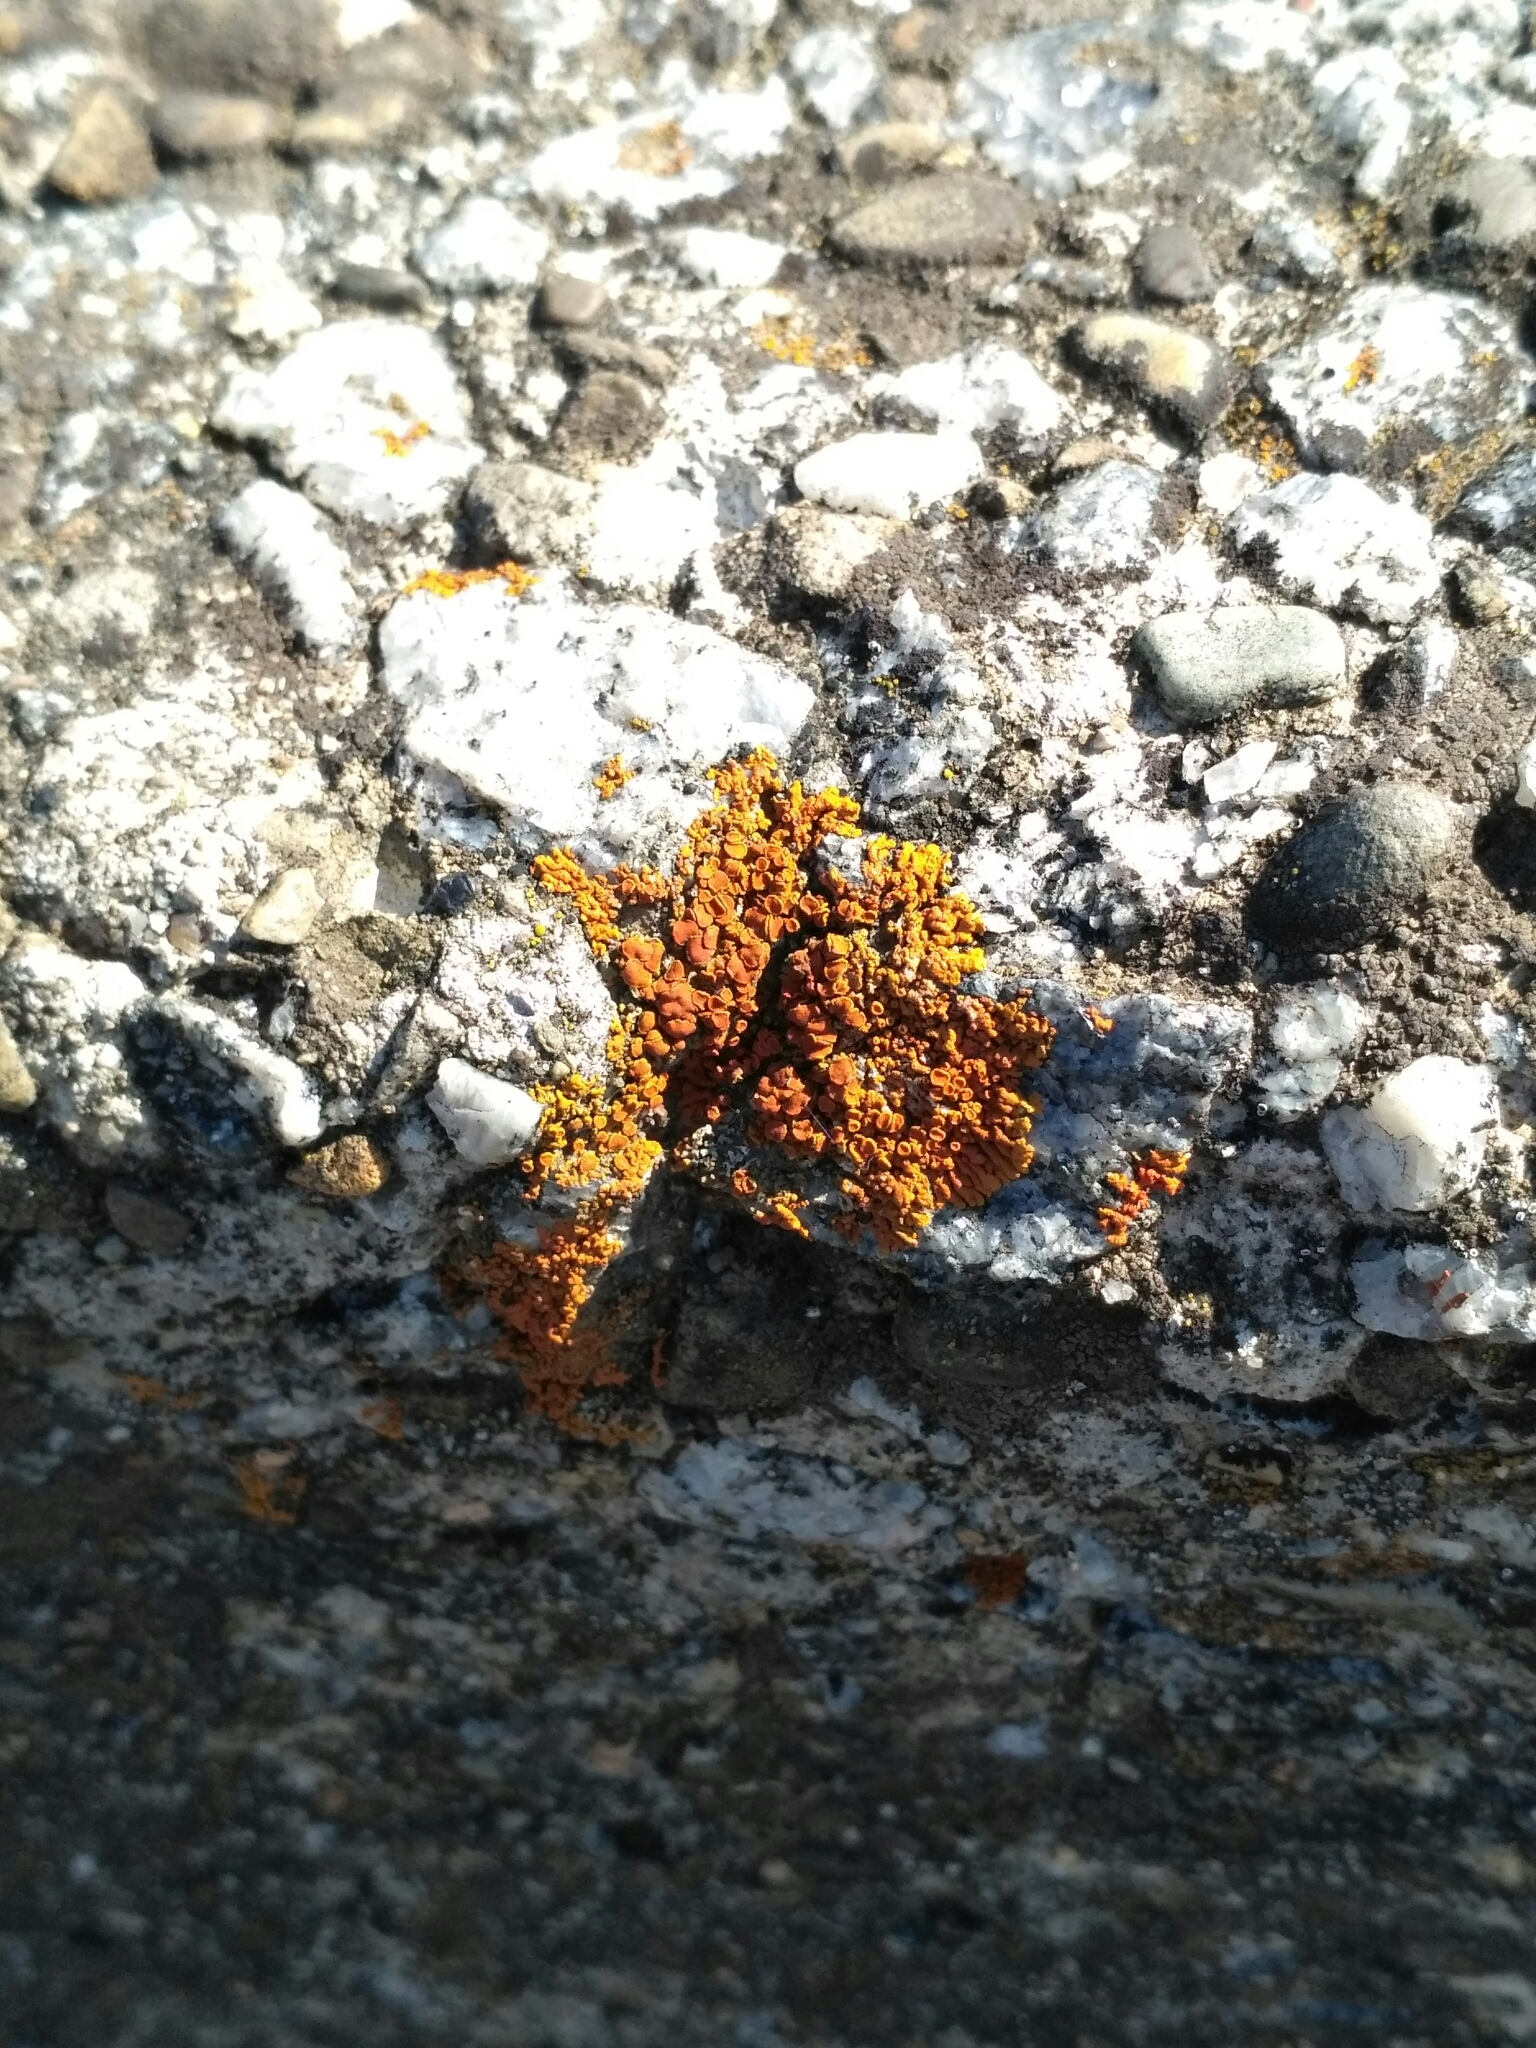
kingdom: Fungi
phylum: Ascomycota
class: Lecanoromycetes
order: Teloschistales
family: Teloschistaceae
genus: Xanthoria
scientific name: Xanthoria elegans
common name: Elegant sunburst lichen
